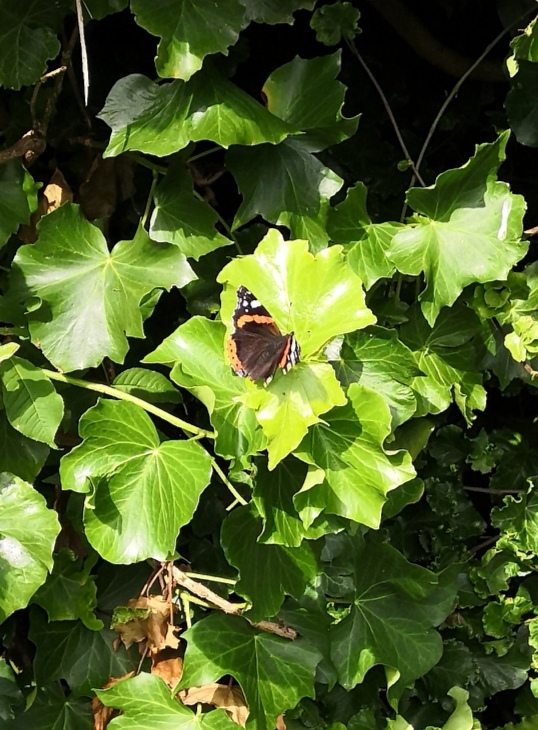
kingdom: Animalia
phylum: Arthropoda
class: Insecta
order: Lepidoptera
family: Nymphalidae
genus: Vanessa
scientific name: Vanessa atalanta
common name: Red admiral
